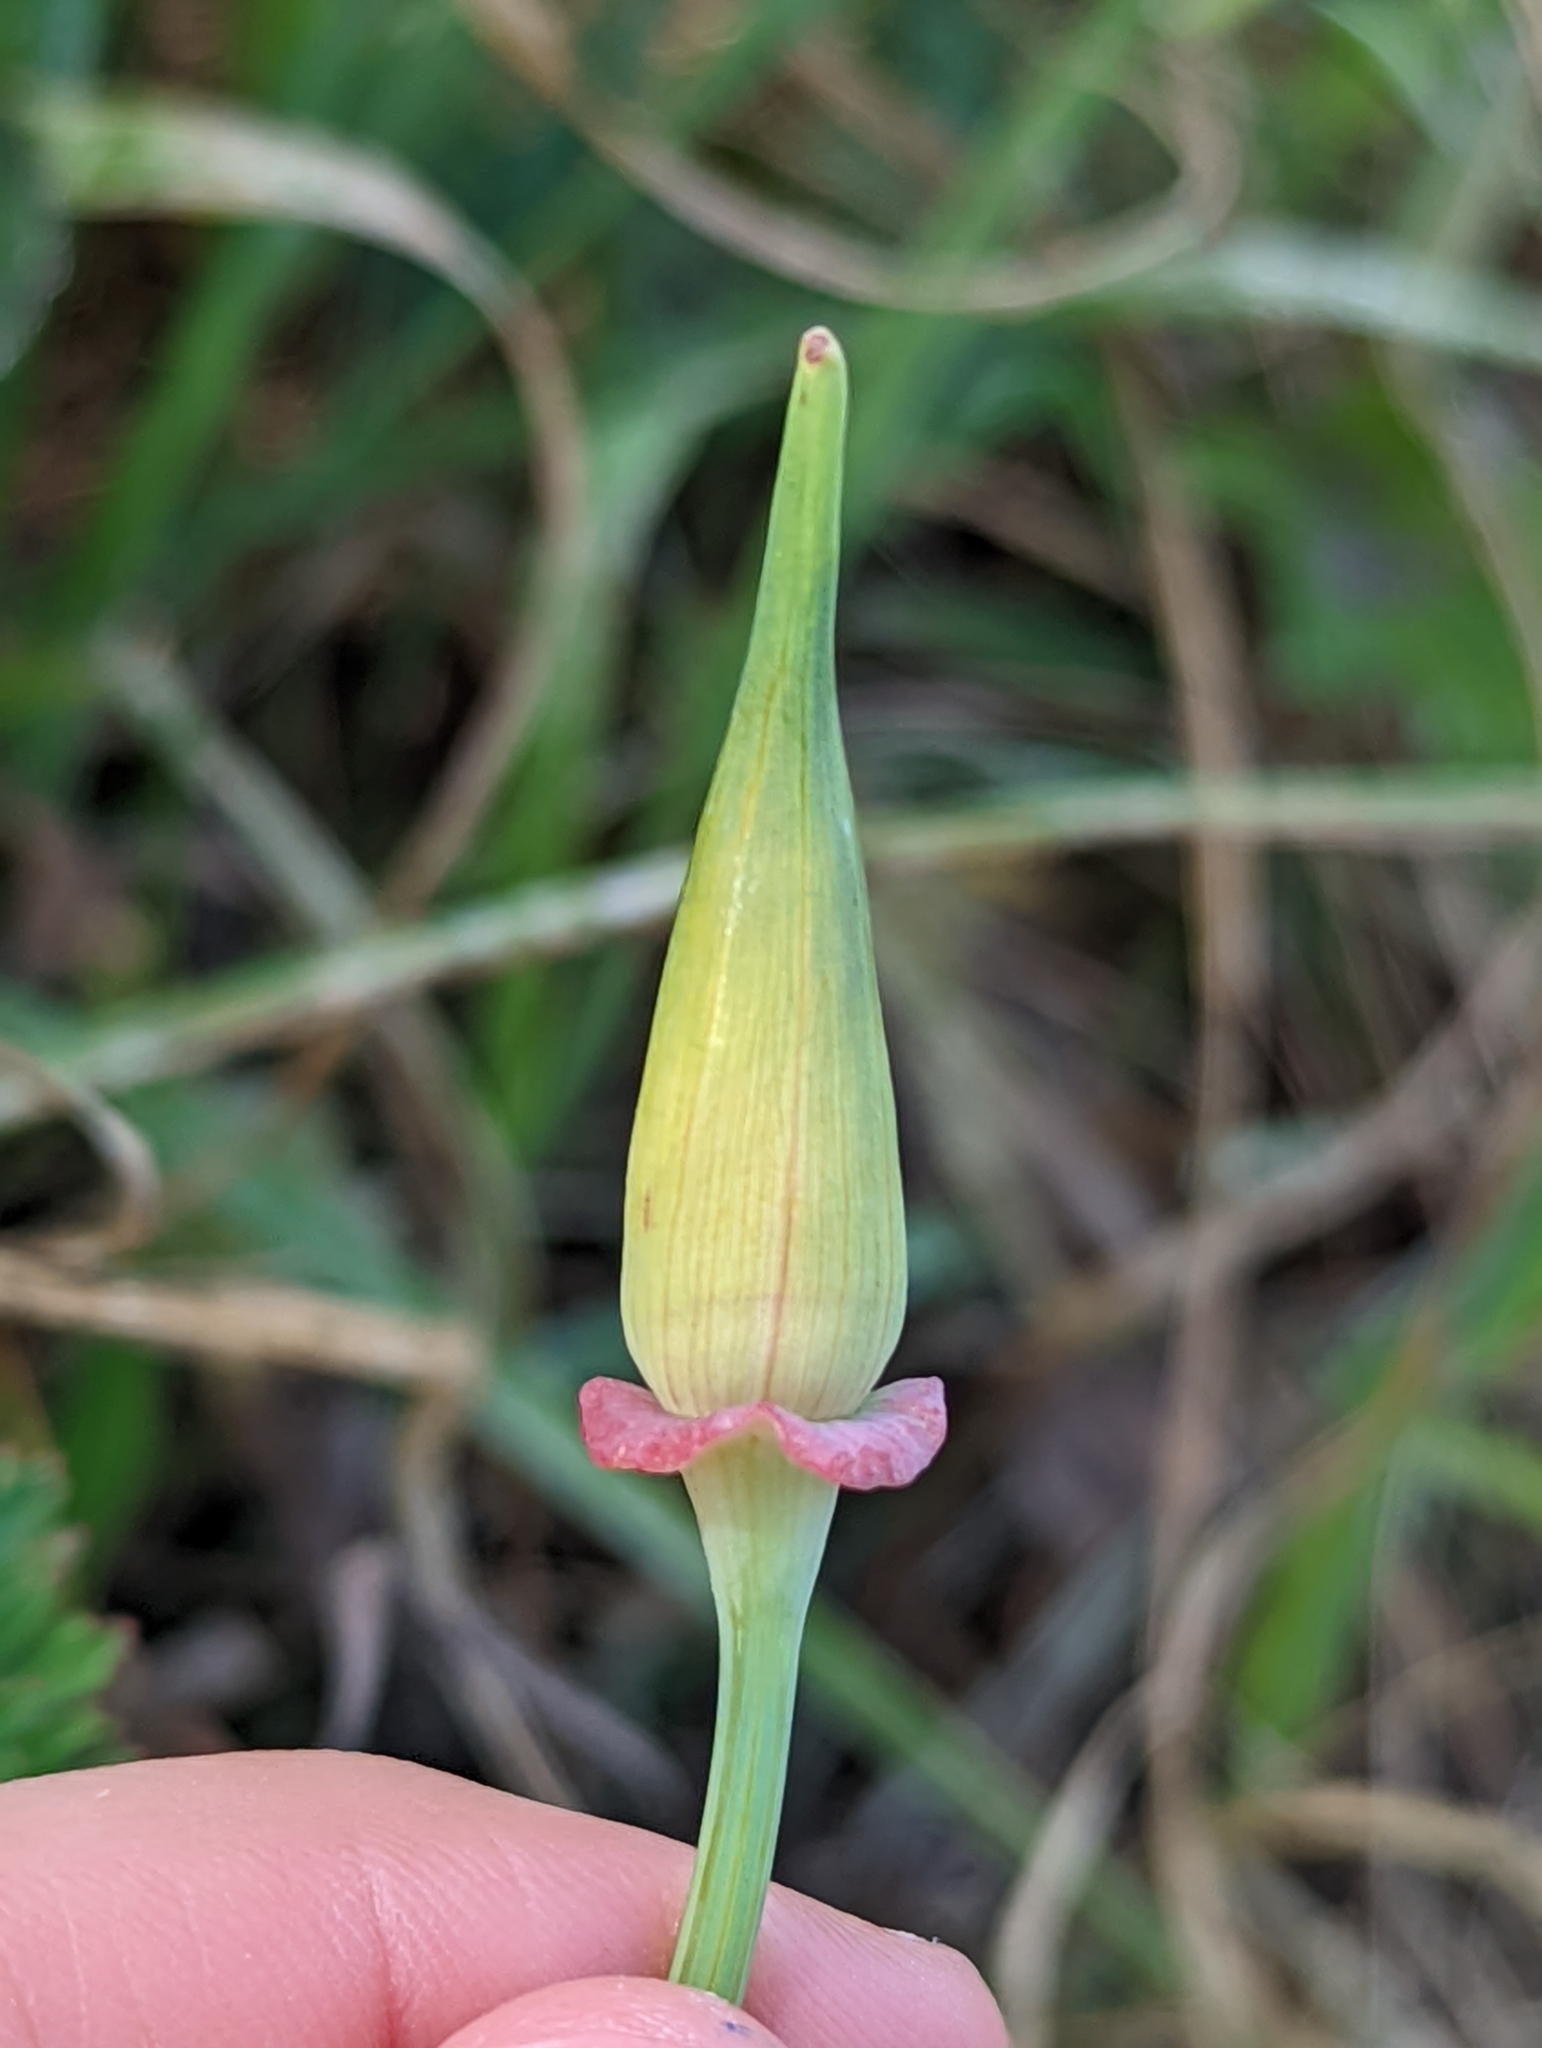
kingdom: Plantae
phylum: Tracheophyta
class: Magnoliopsida
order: Ranunculales
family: Papaveraceae
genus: Eschscholzia
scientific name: Eschscholzia californica
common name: California poppy
